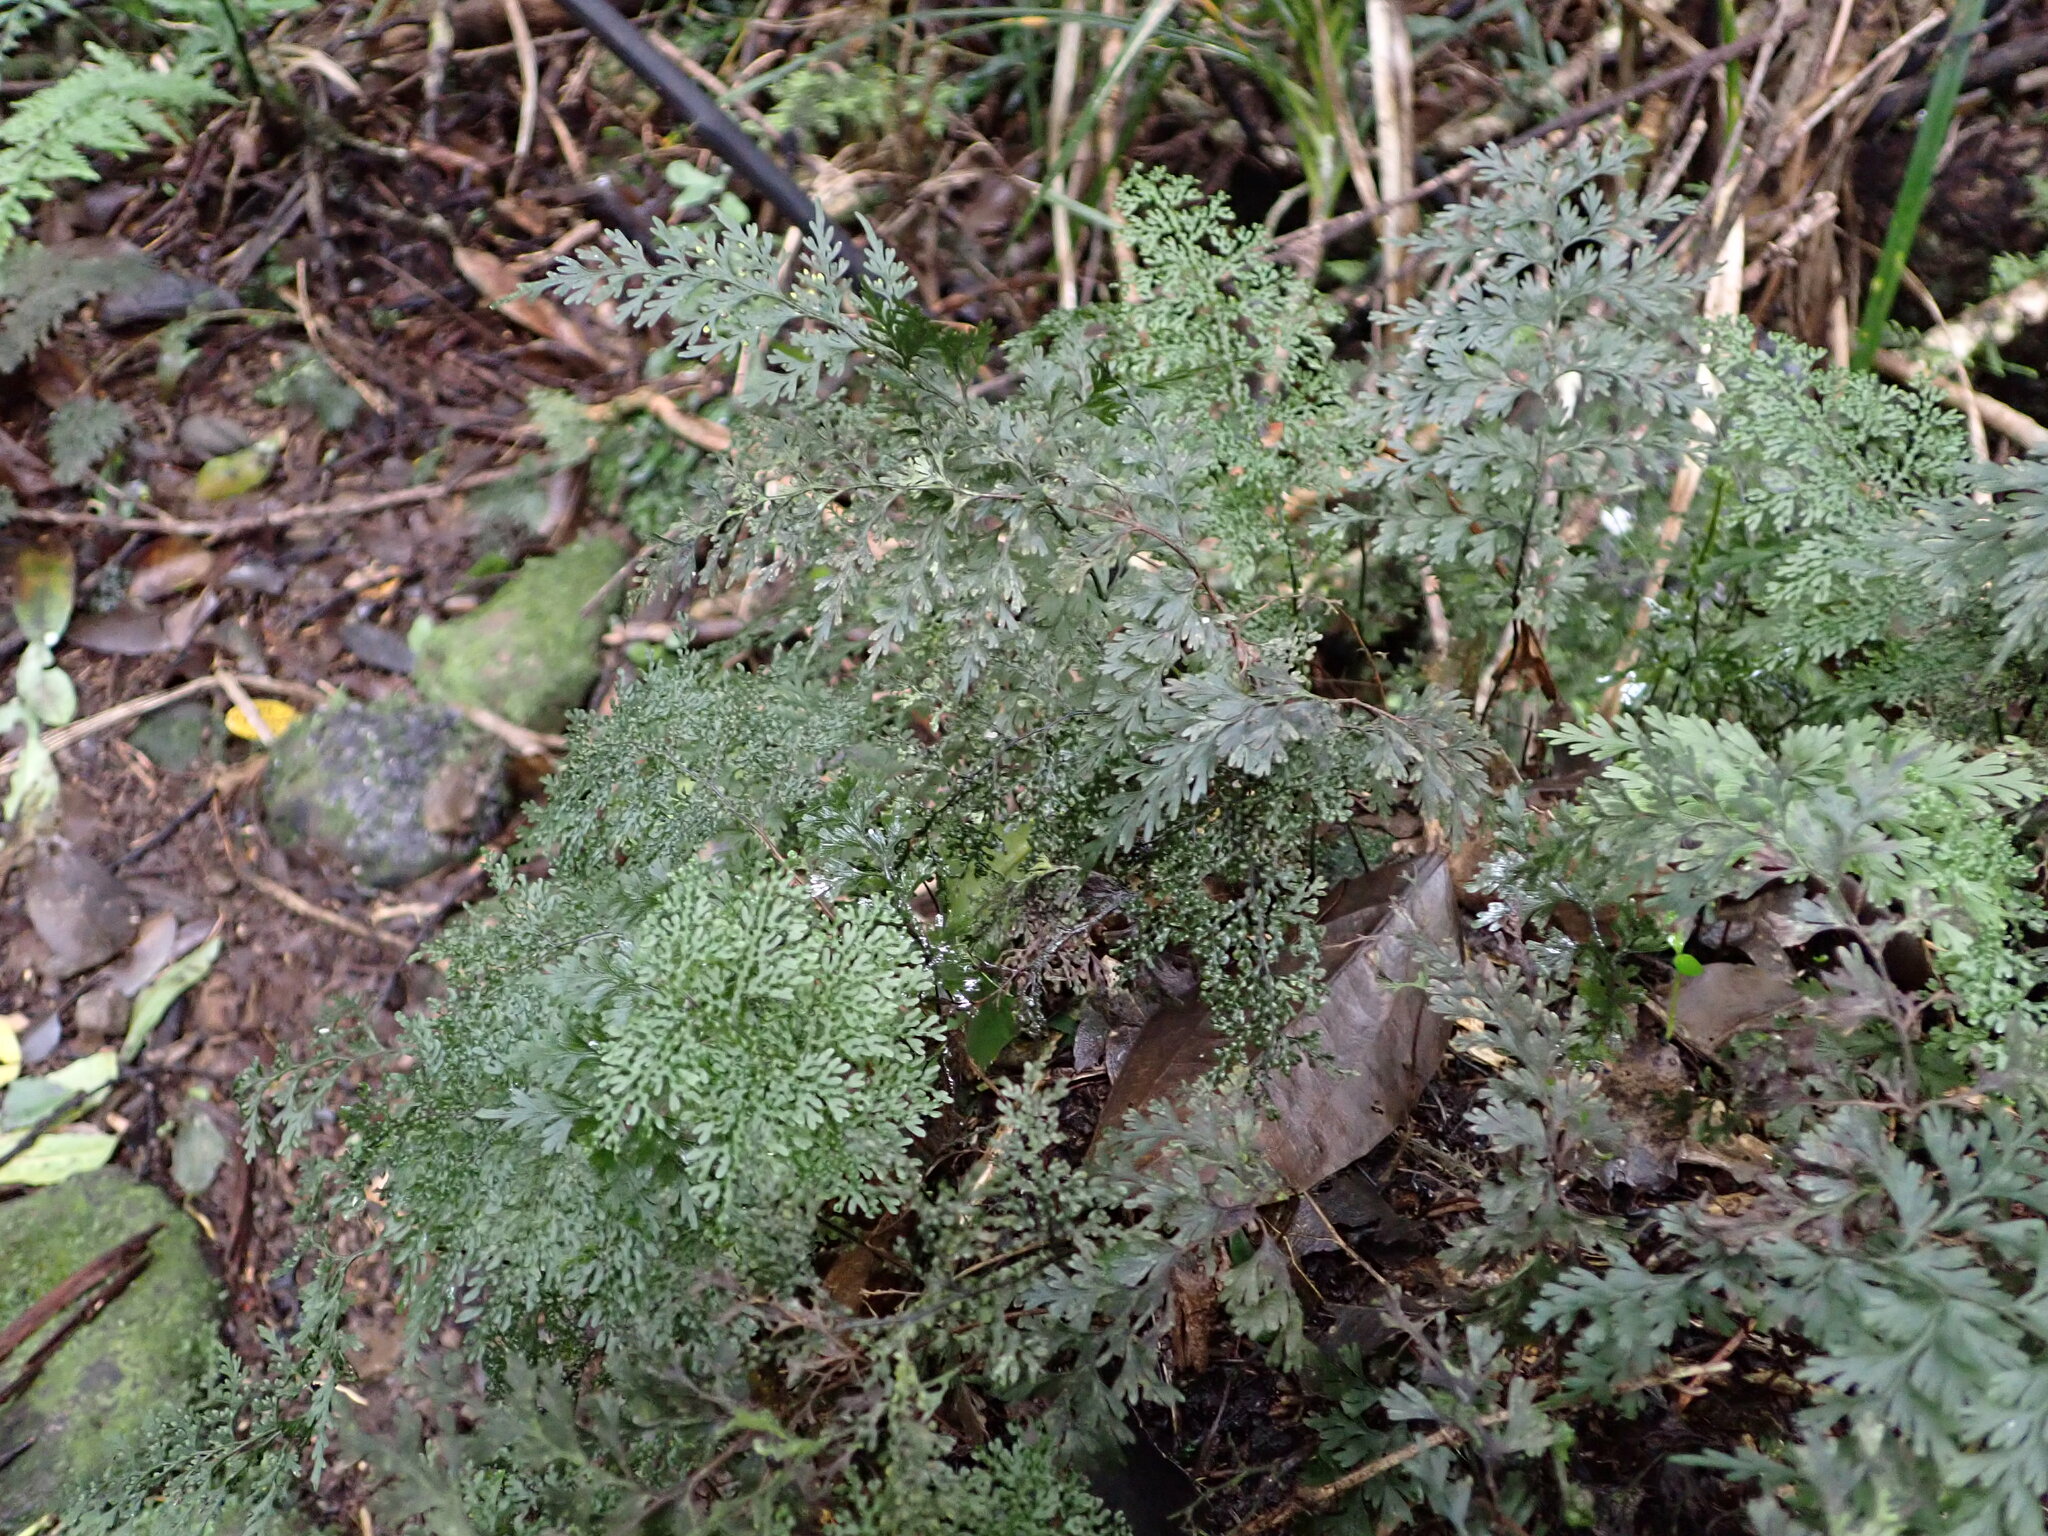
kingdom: Plantae
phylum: Tracheophyta
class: Polypodiopsida
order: Hymenophyllales
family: Hymenophyllaceae
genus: Hymenophyllum
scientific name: Hymenophyllum flexuosum
